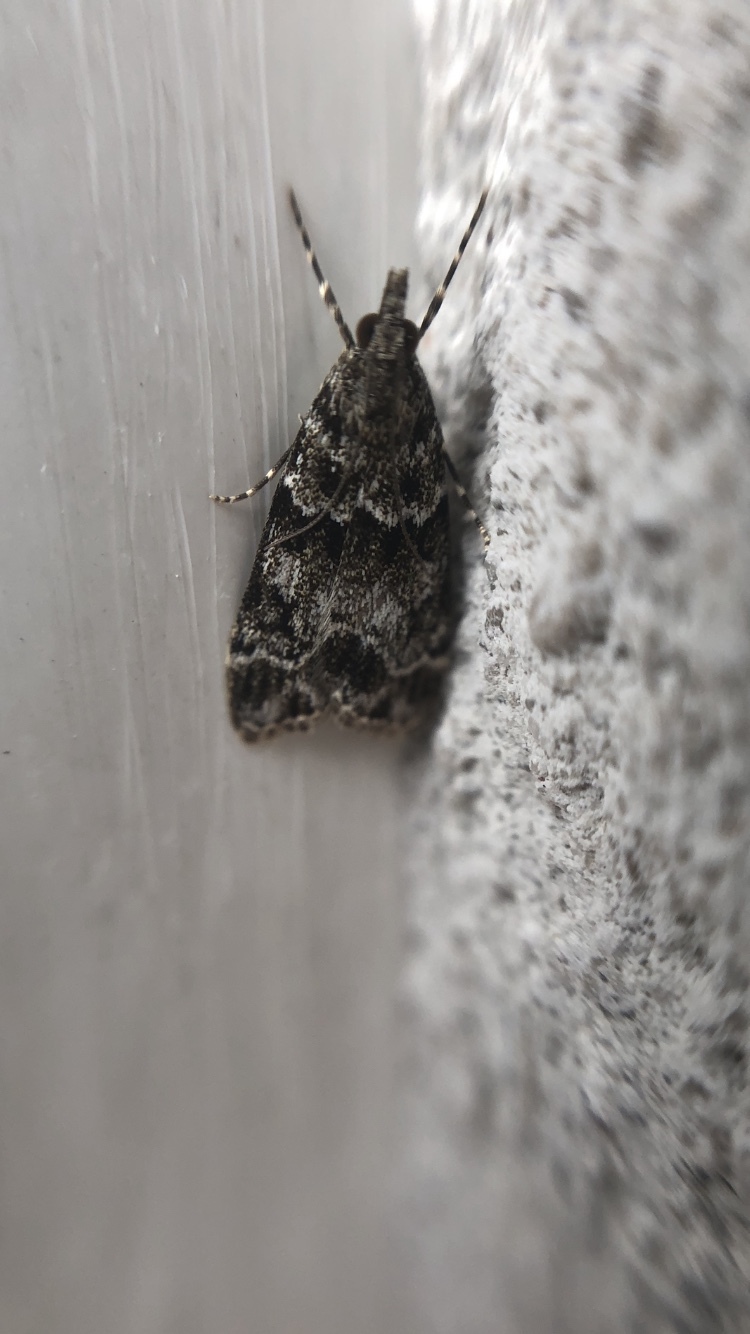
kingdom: Animalia
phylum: Arthropoda
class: Insecta
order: Lepidoptera
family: Crambidae
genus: Eudonia
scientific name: Eudonia mercurella
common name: Small grey
